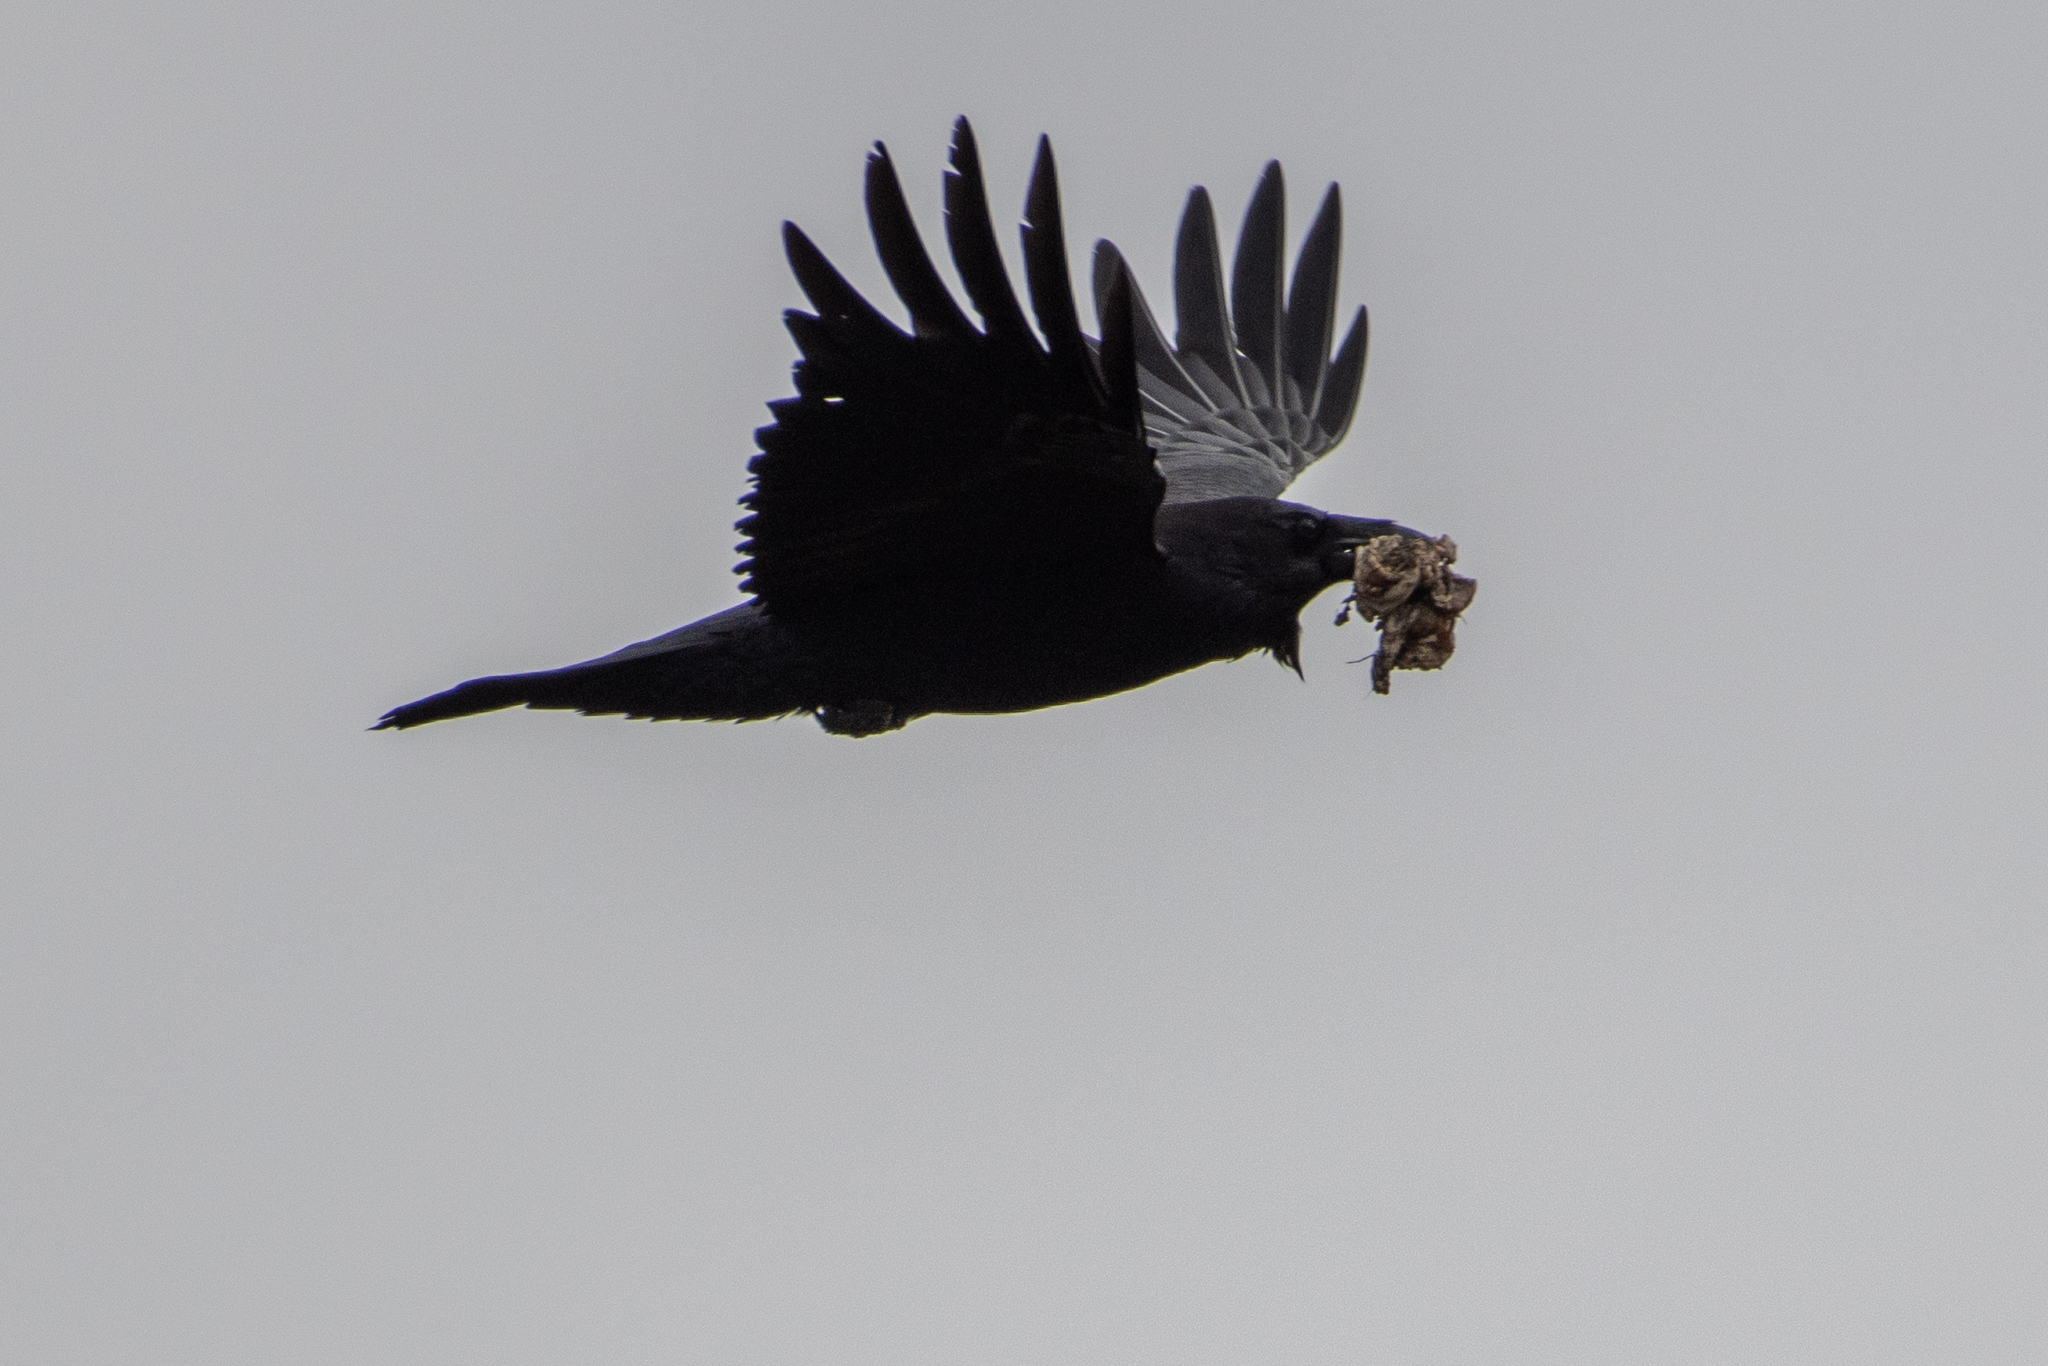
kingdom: Animalia
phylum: Chordata
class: Aves
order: Passeriformes
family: Corvidae
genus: Corvus
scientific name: Corvus corax
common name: Common raven
